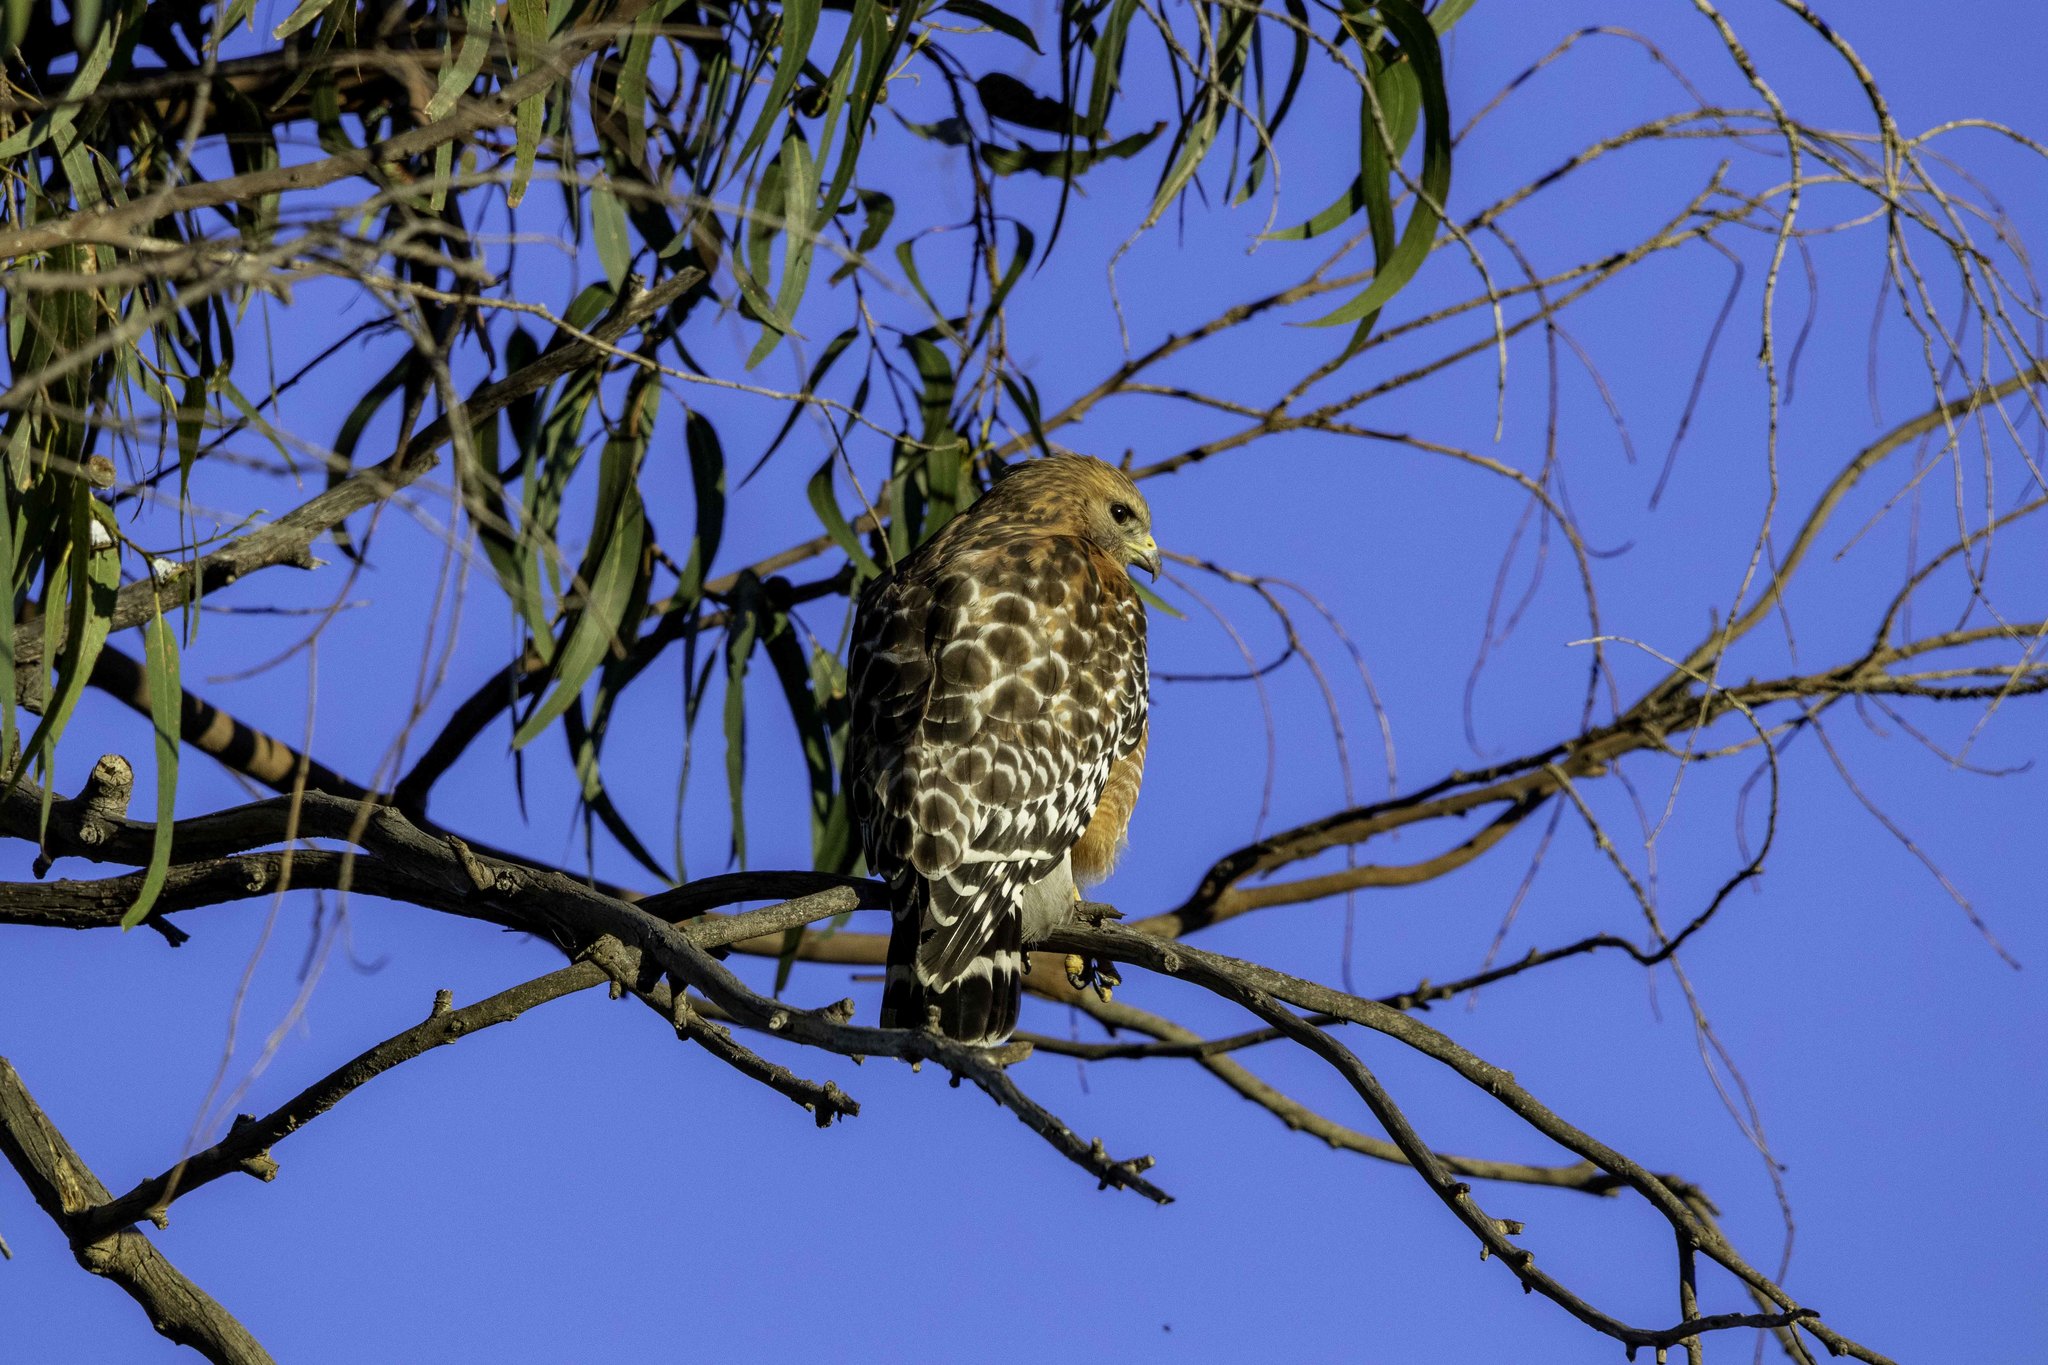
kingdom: Animalia
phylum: Chordata
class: Aves
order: Accipitriformes
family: Accipitridae
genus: Buteo
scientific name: Buteo lineatus
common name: Red-shouldered hawk
